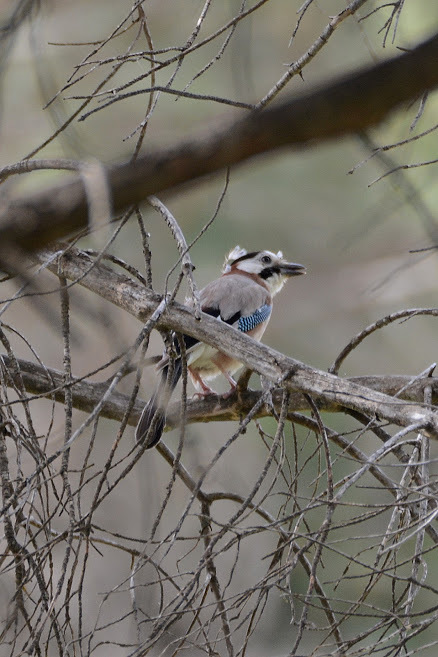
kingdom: Animalia
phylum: Chordata
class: Aves
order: Passeriformes
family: Corvidae
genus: Garrulus
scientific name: Garrulus glandarius
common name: Eurasian jay
